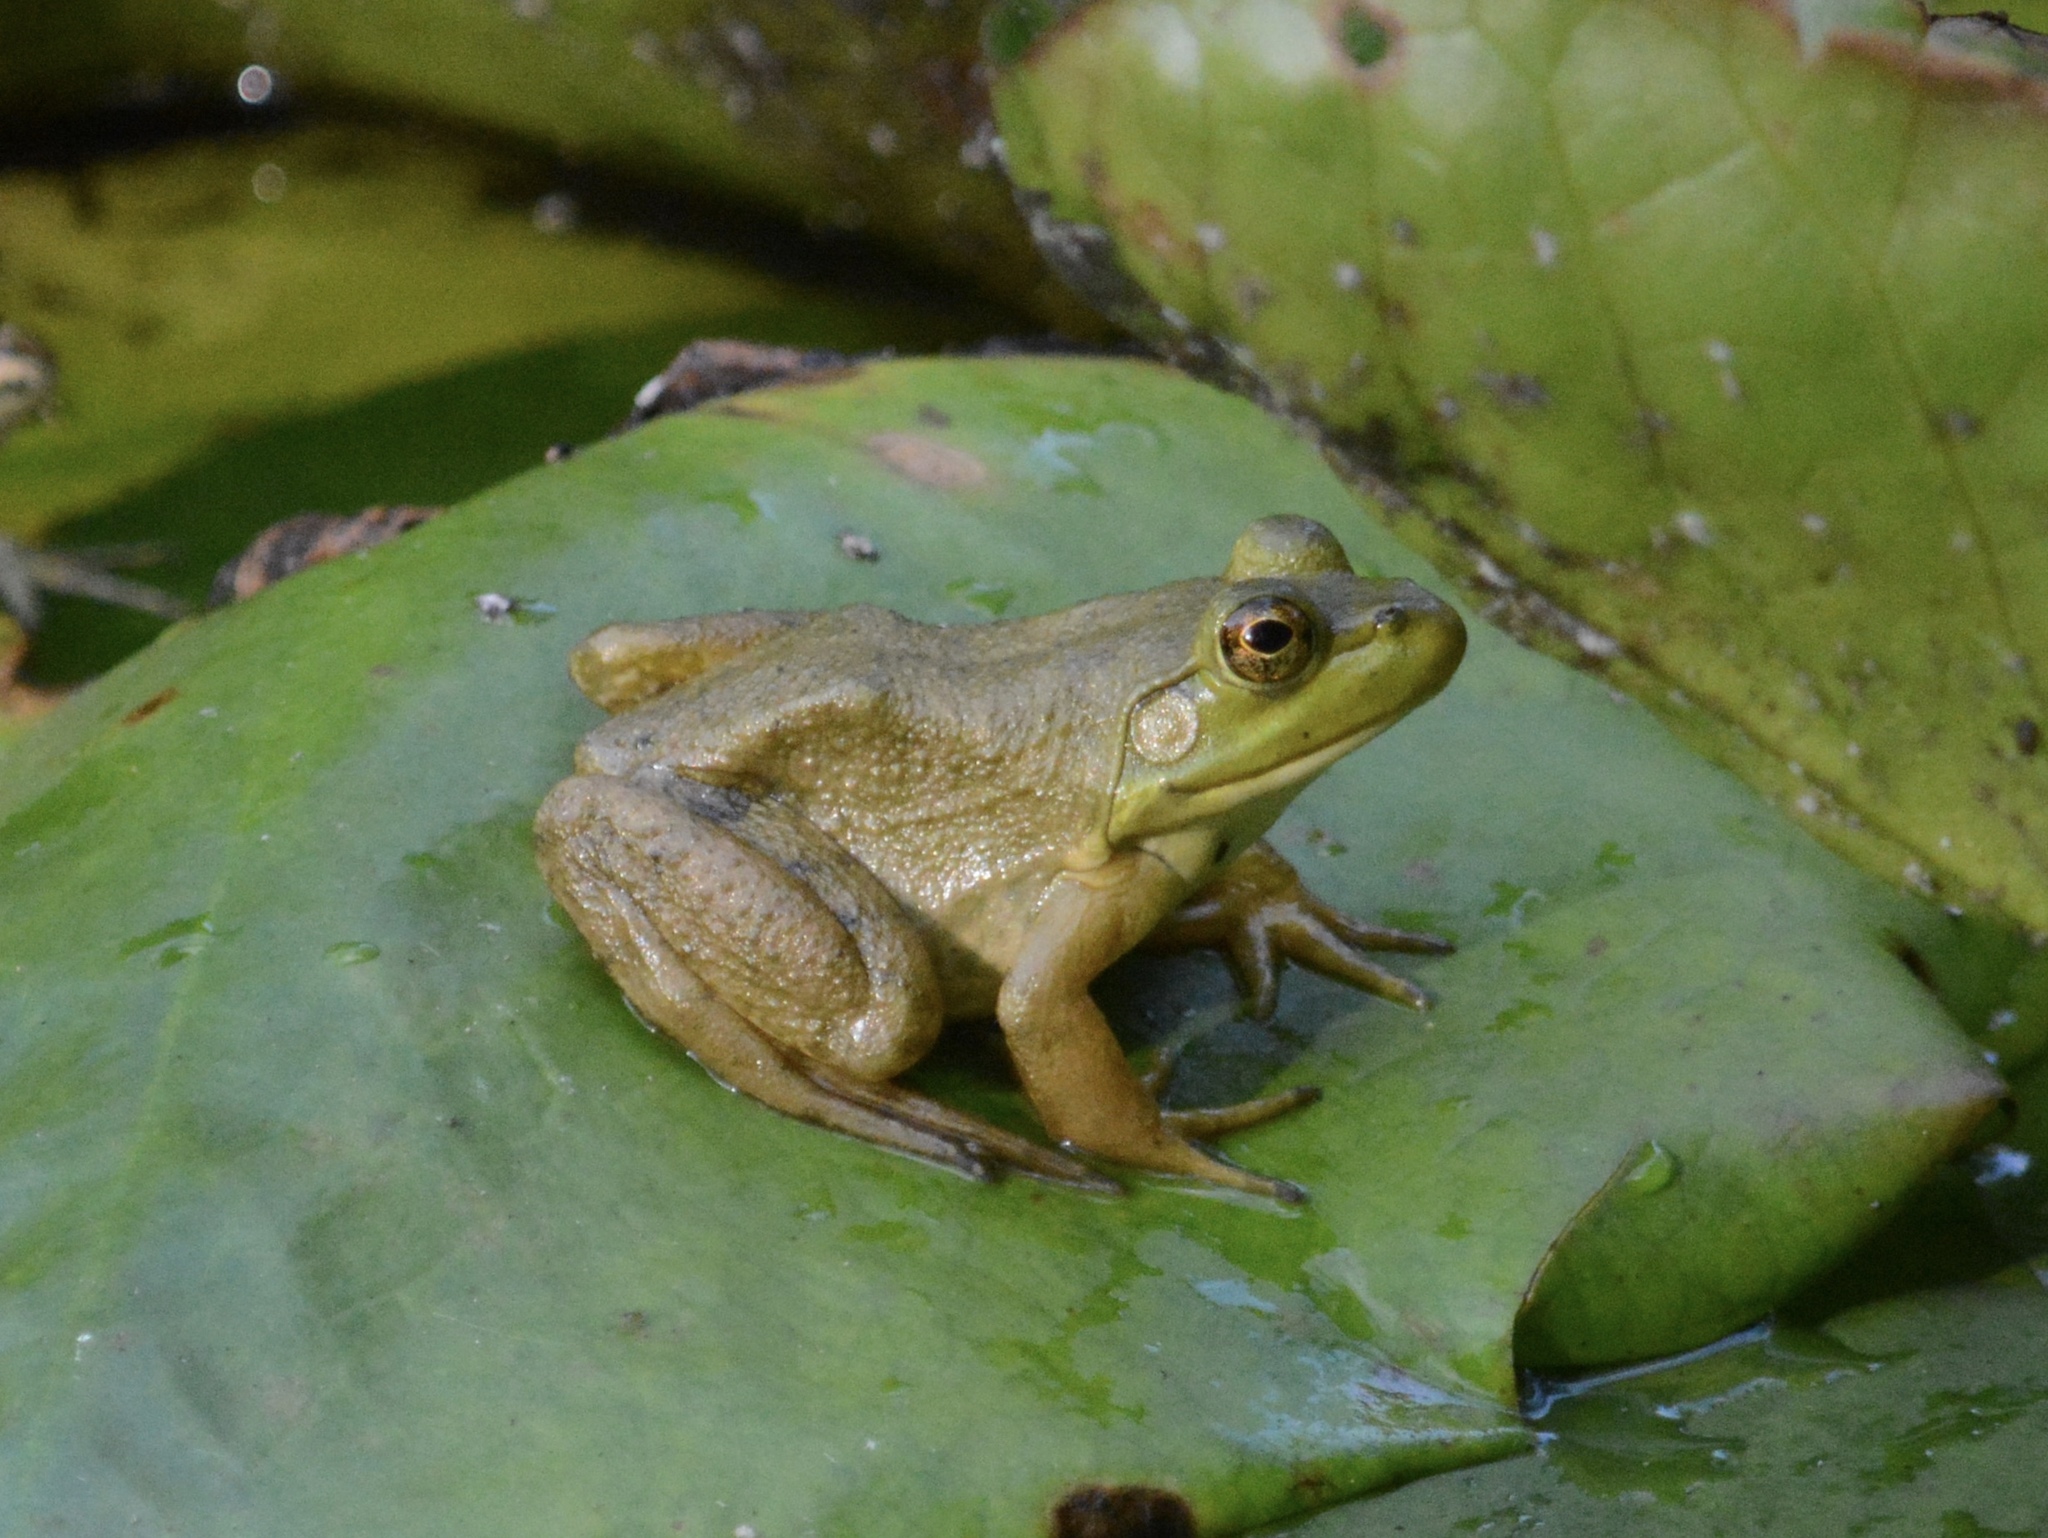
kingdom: Animalia
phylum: Chordata
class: Amphibia
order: Anura
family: Ranidae
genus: Lithobates
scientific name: Lithobates catesbeianus
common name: American bullfrog
